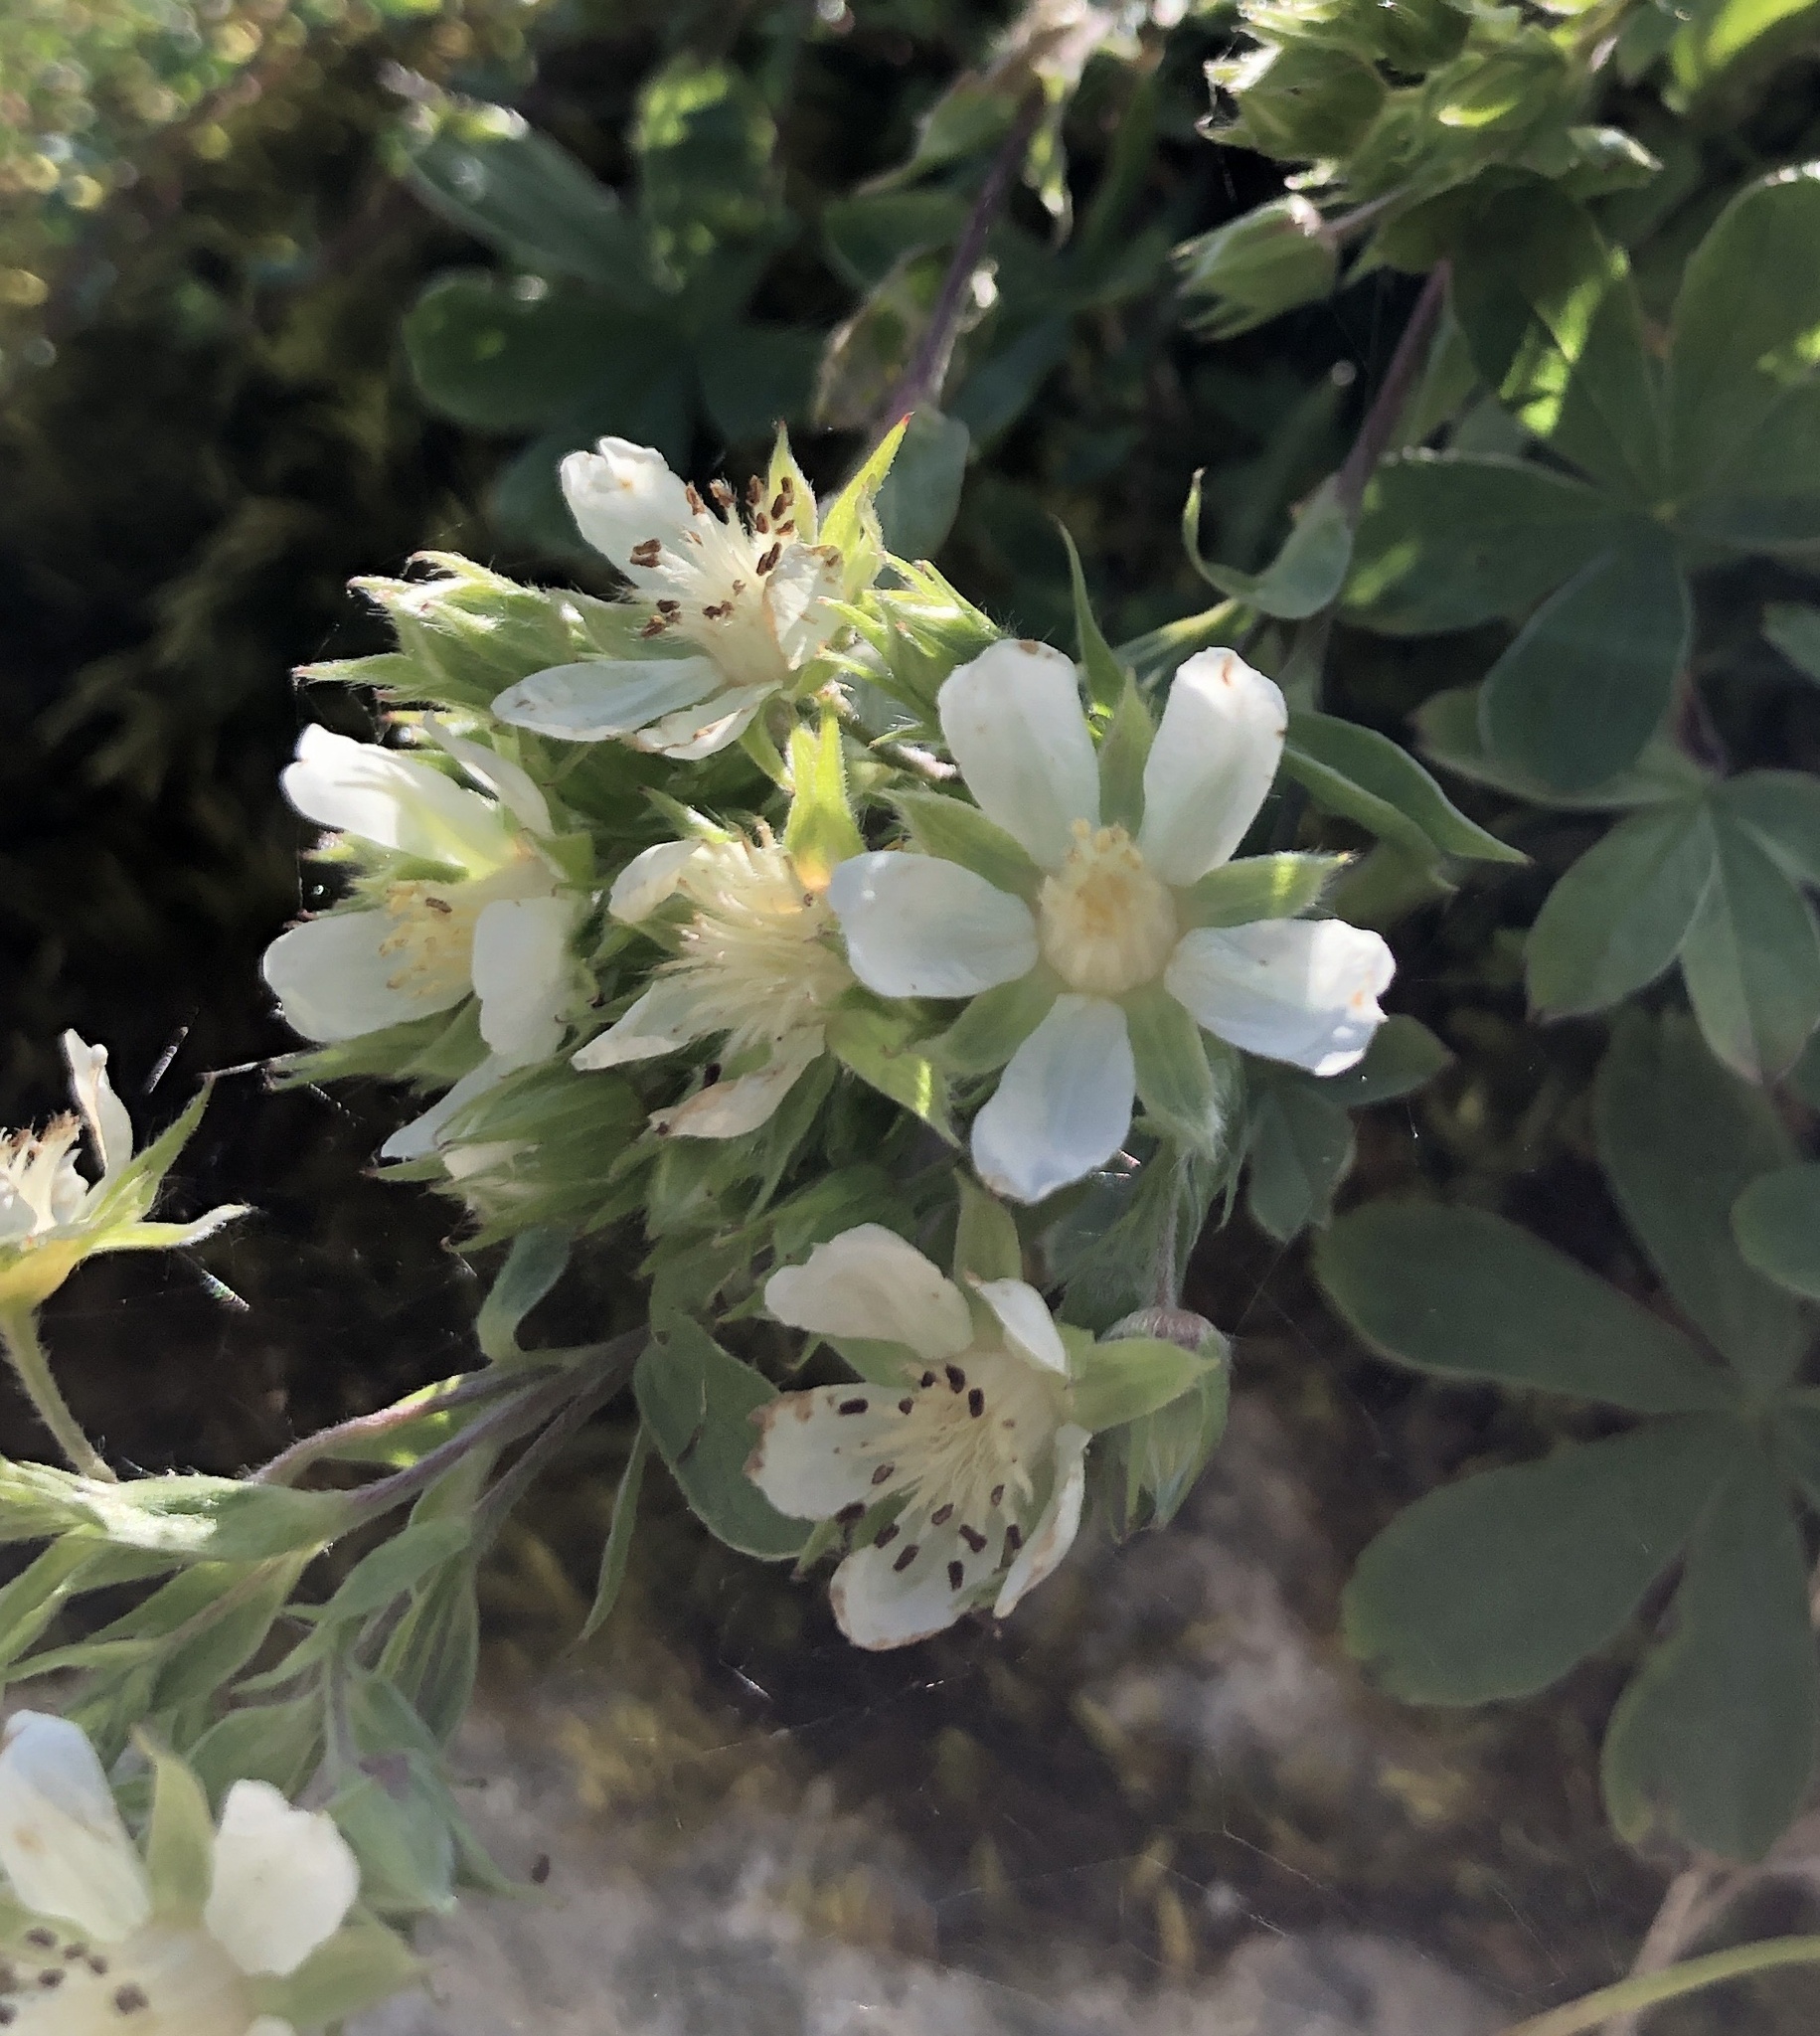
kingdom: Plantae
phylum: Tracheophyta
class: Magnoliopsida
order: Rosales
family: Rosaceae
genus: Potentilla
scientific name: Potentilla caulescens
